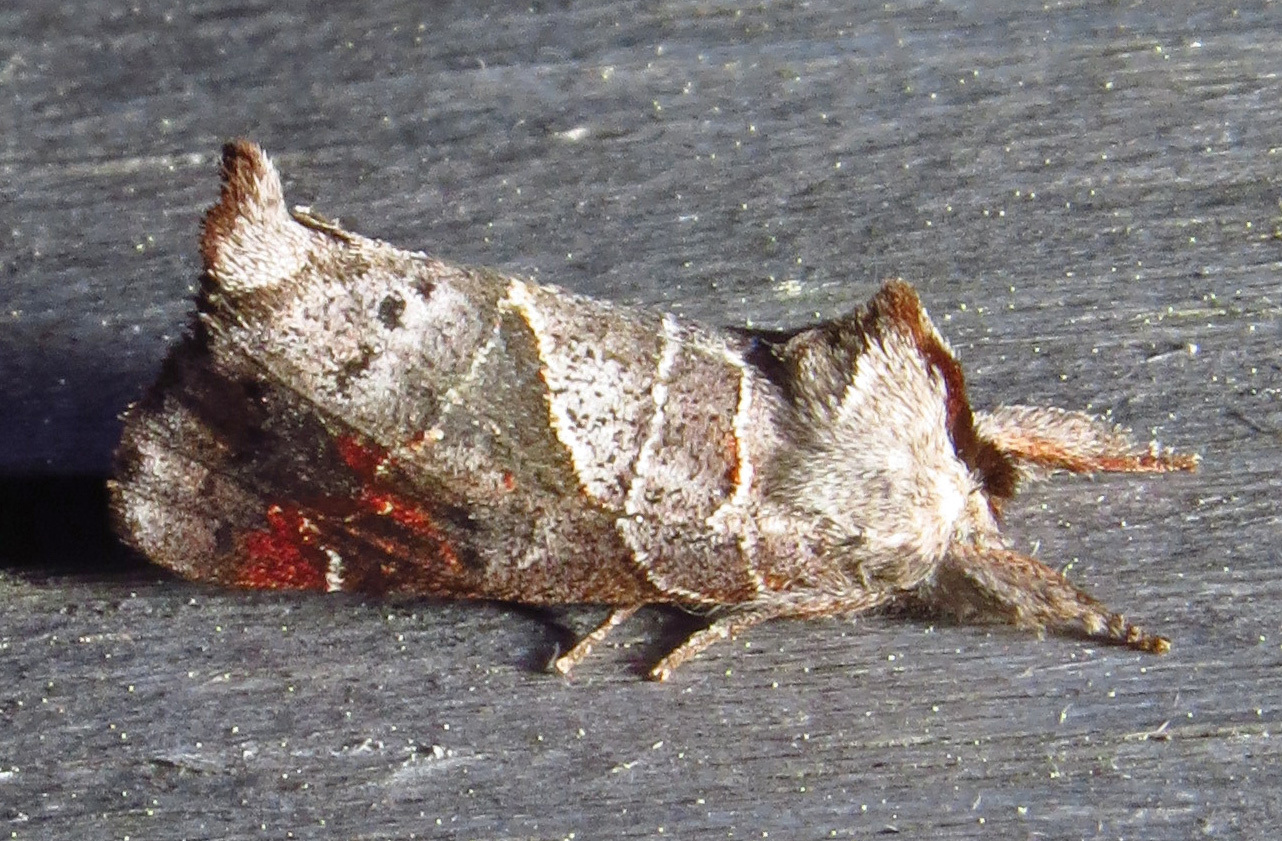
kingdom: Animalia
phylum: Arthropoda
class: Insecta
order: Lepidoptera
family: Notodontidae
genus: Clostera
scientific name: Clostera apicalis
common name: Apical prominent
